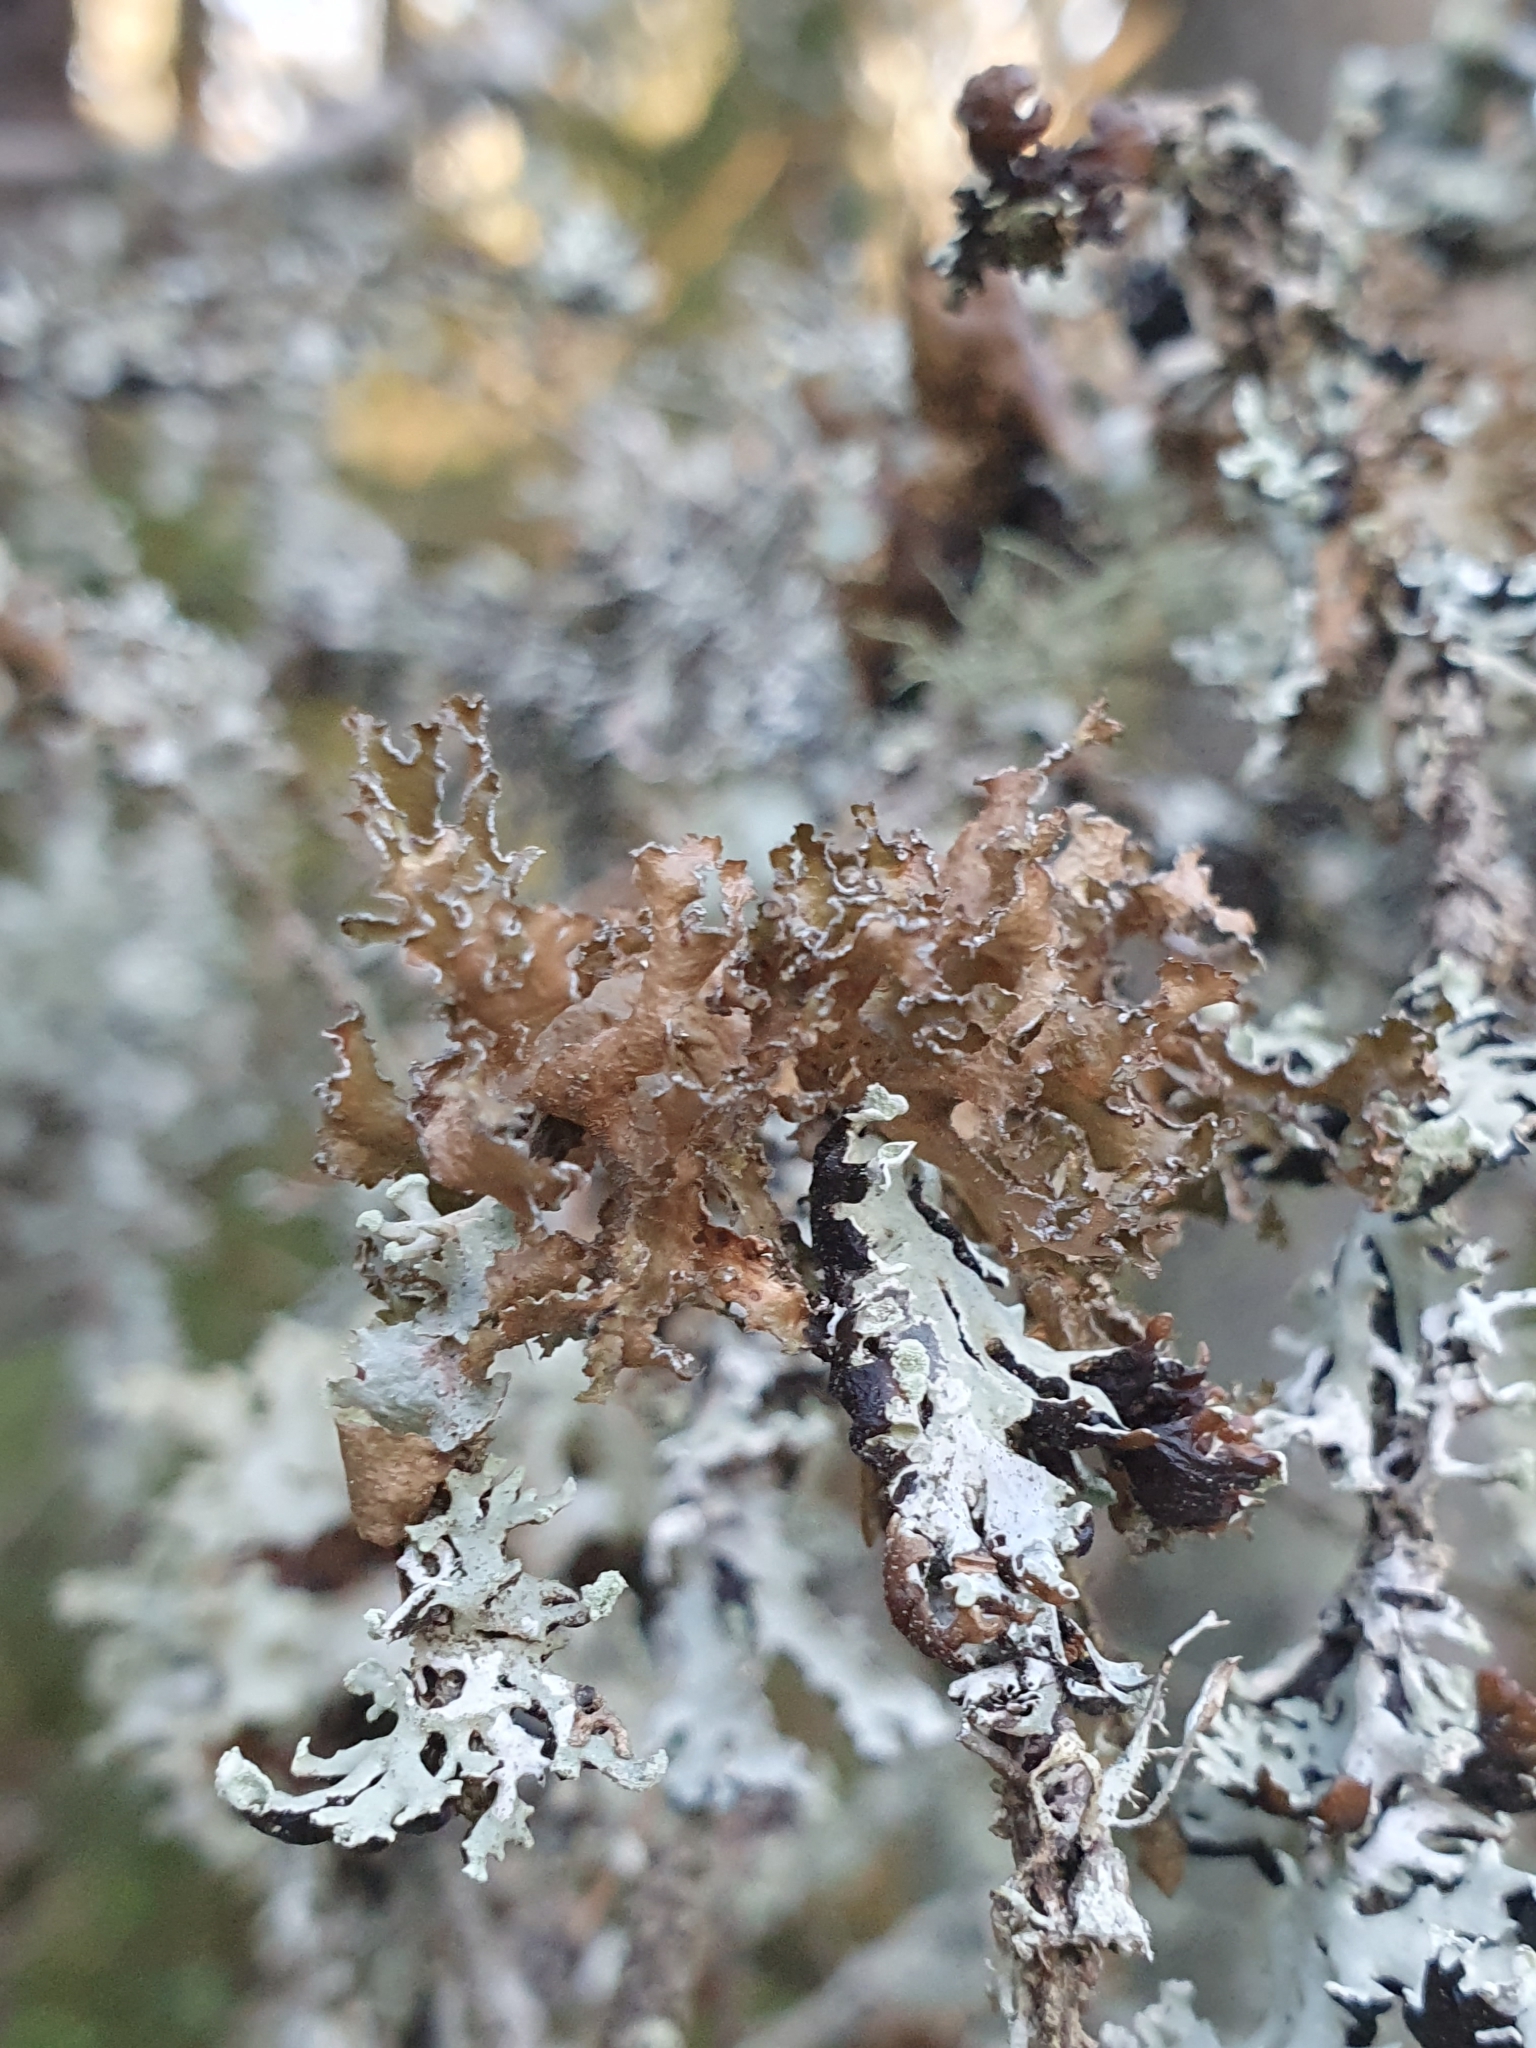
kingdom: Fungi
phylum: Ascomycota
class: Lecanoromycetes
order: Lecanorales
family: Parmeliaceae
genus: Nephromopsis
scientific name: Nephromopsis chlorophylla
